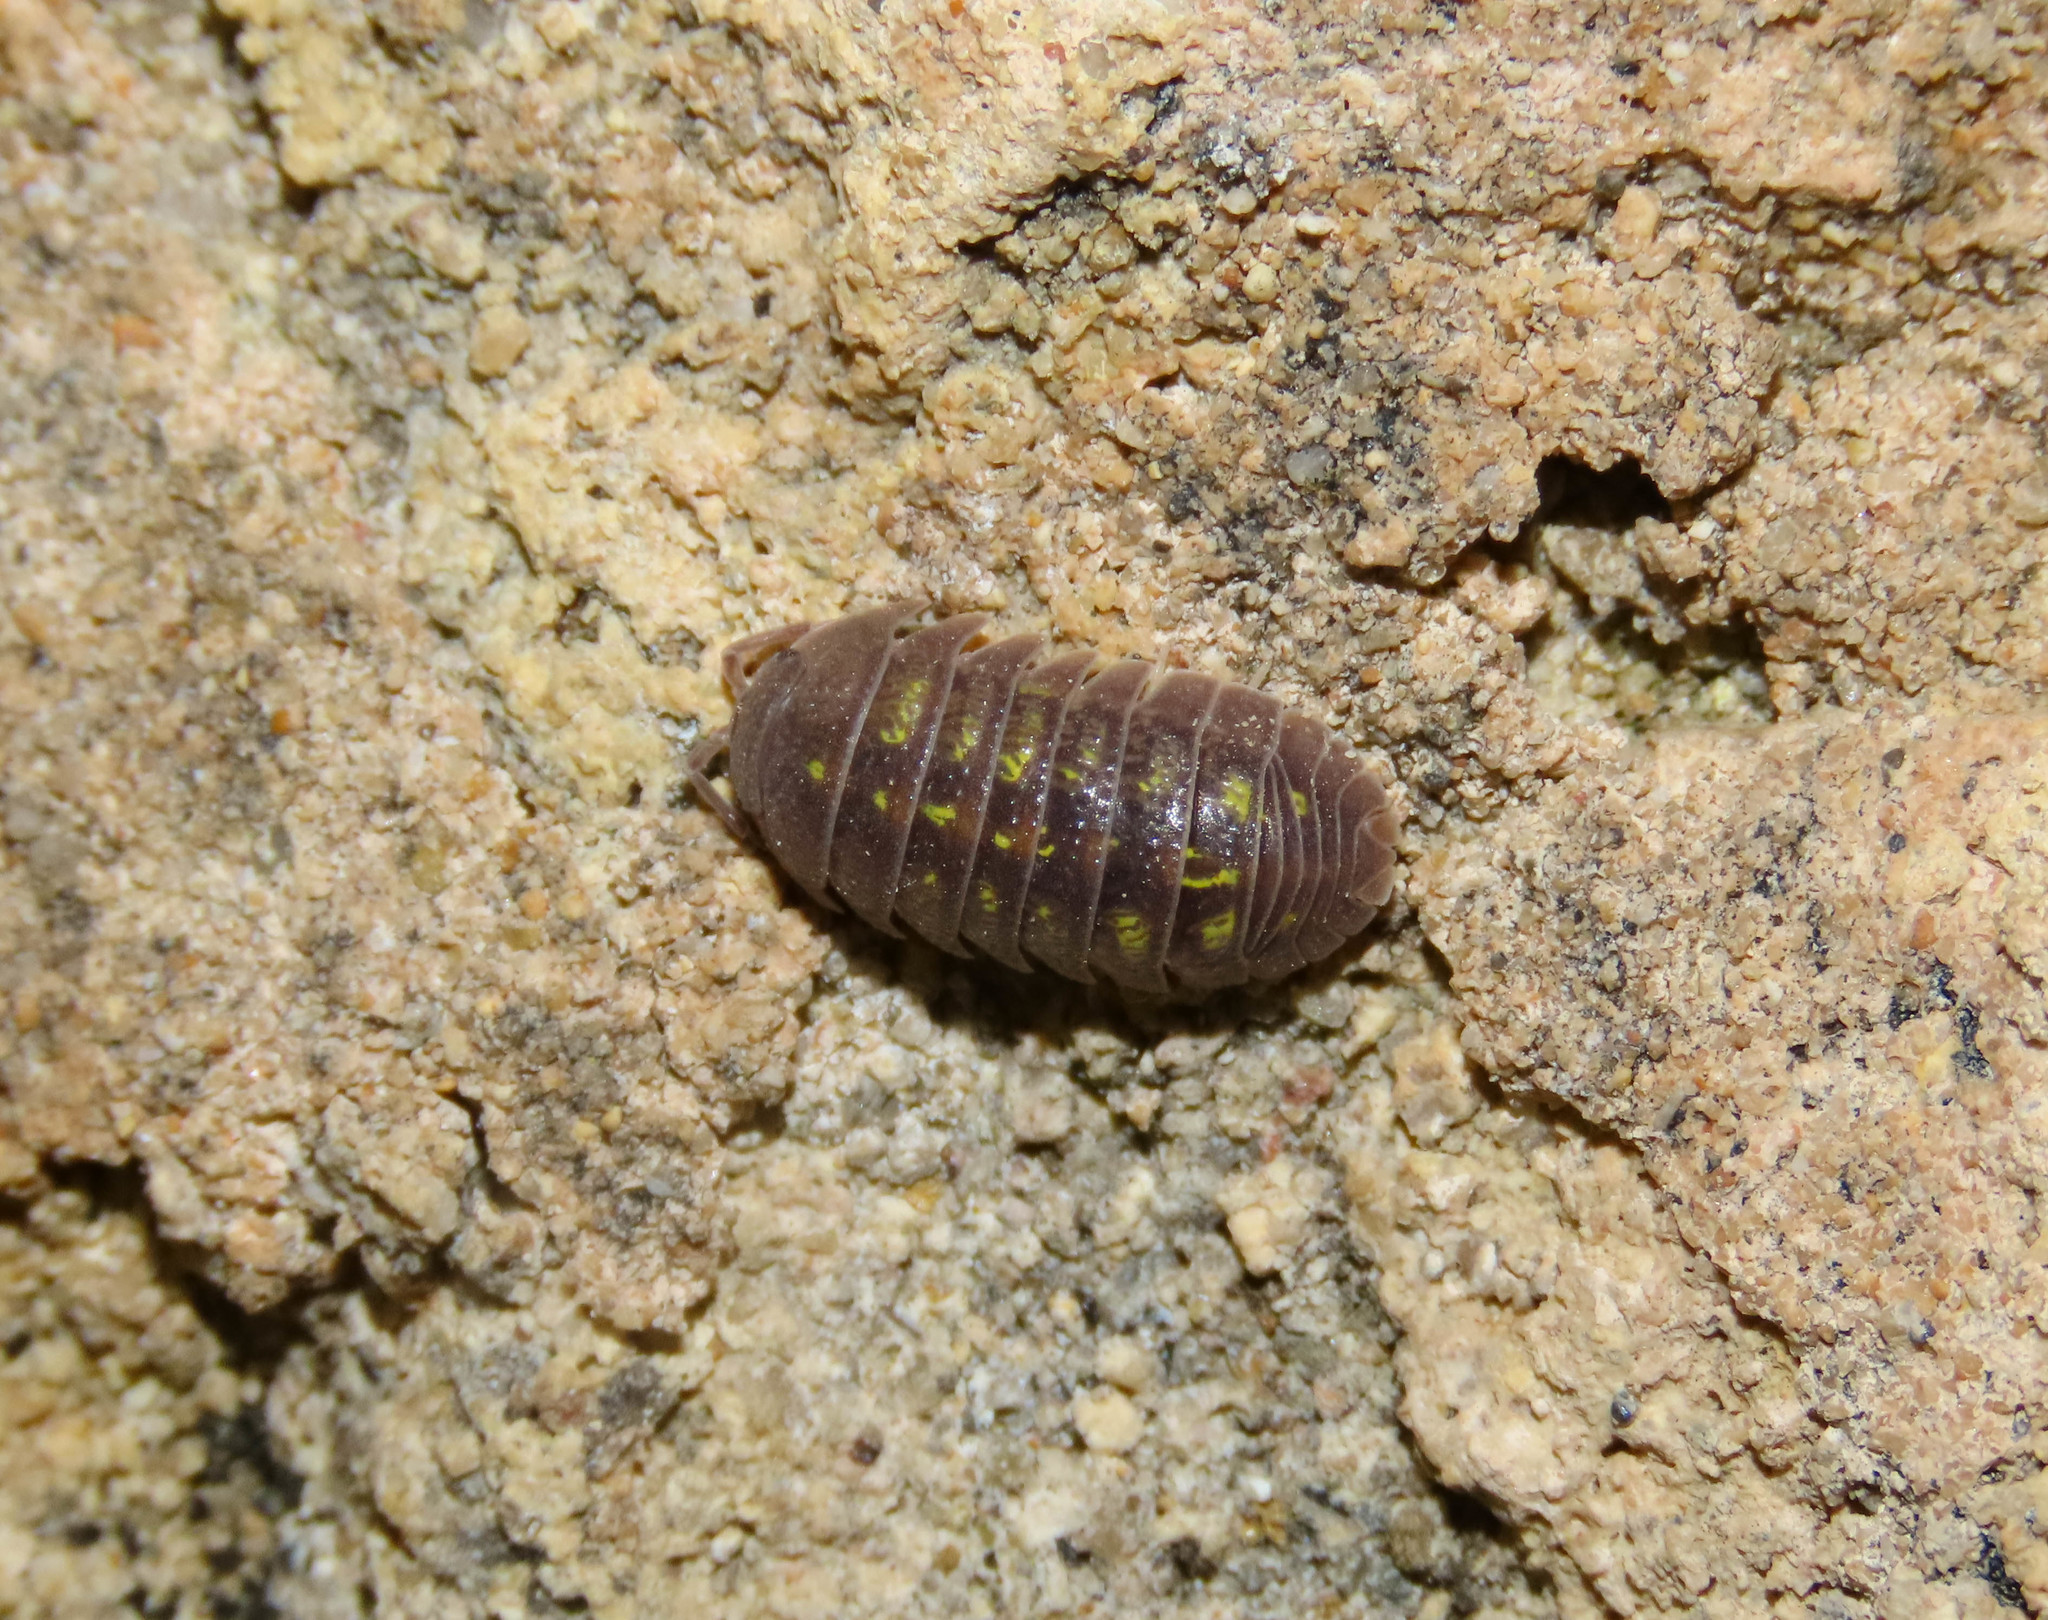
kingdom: Animalia
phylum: Arthropoda
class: Malacostraca
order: Isopoda
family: Armadillidiidae
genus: Armadillidium
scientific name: Armadillidium granulatum
